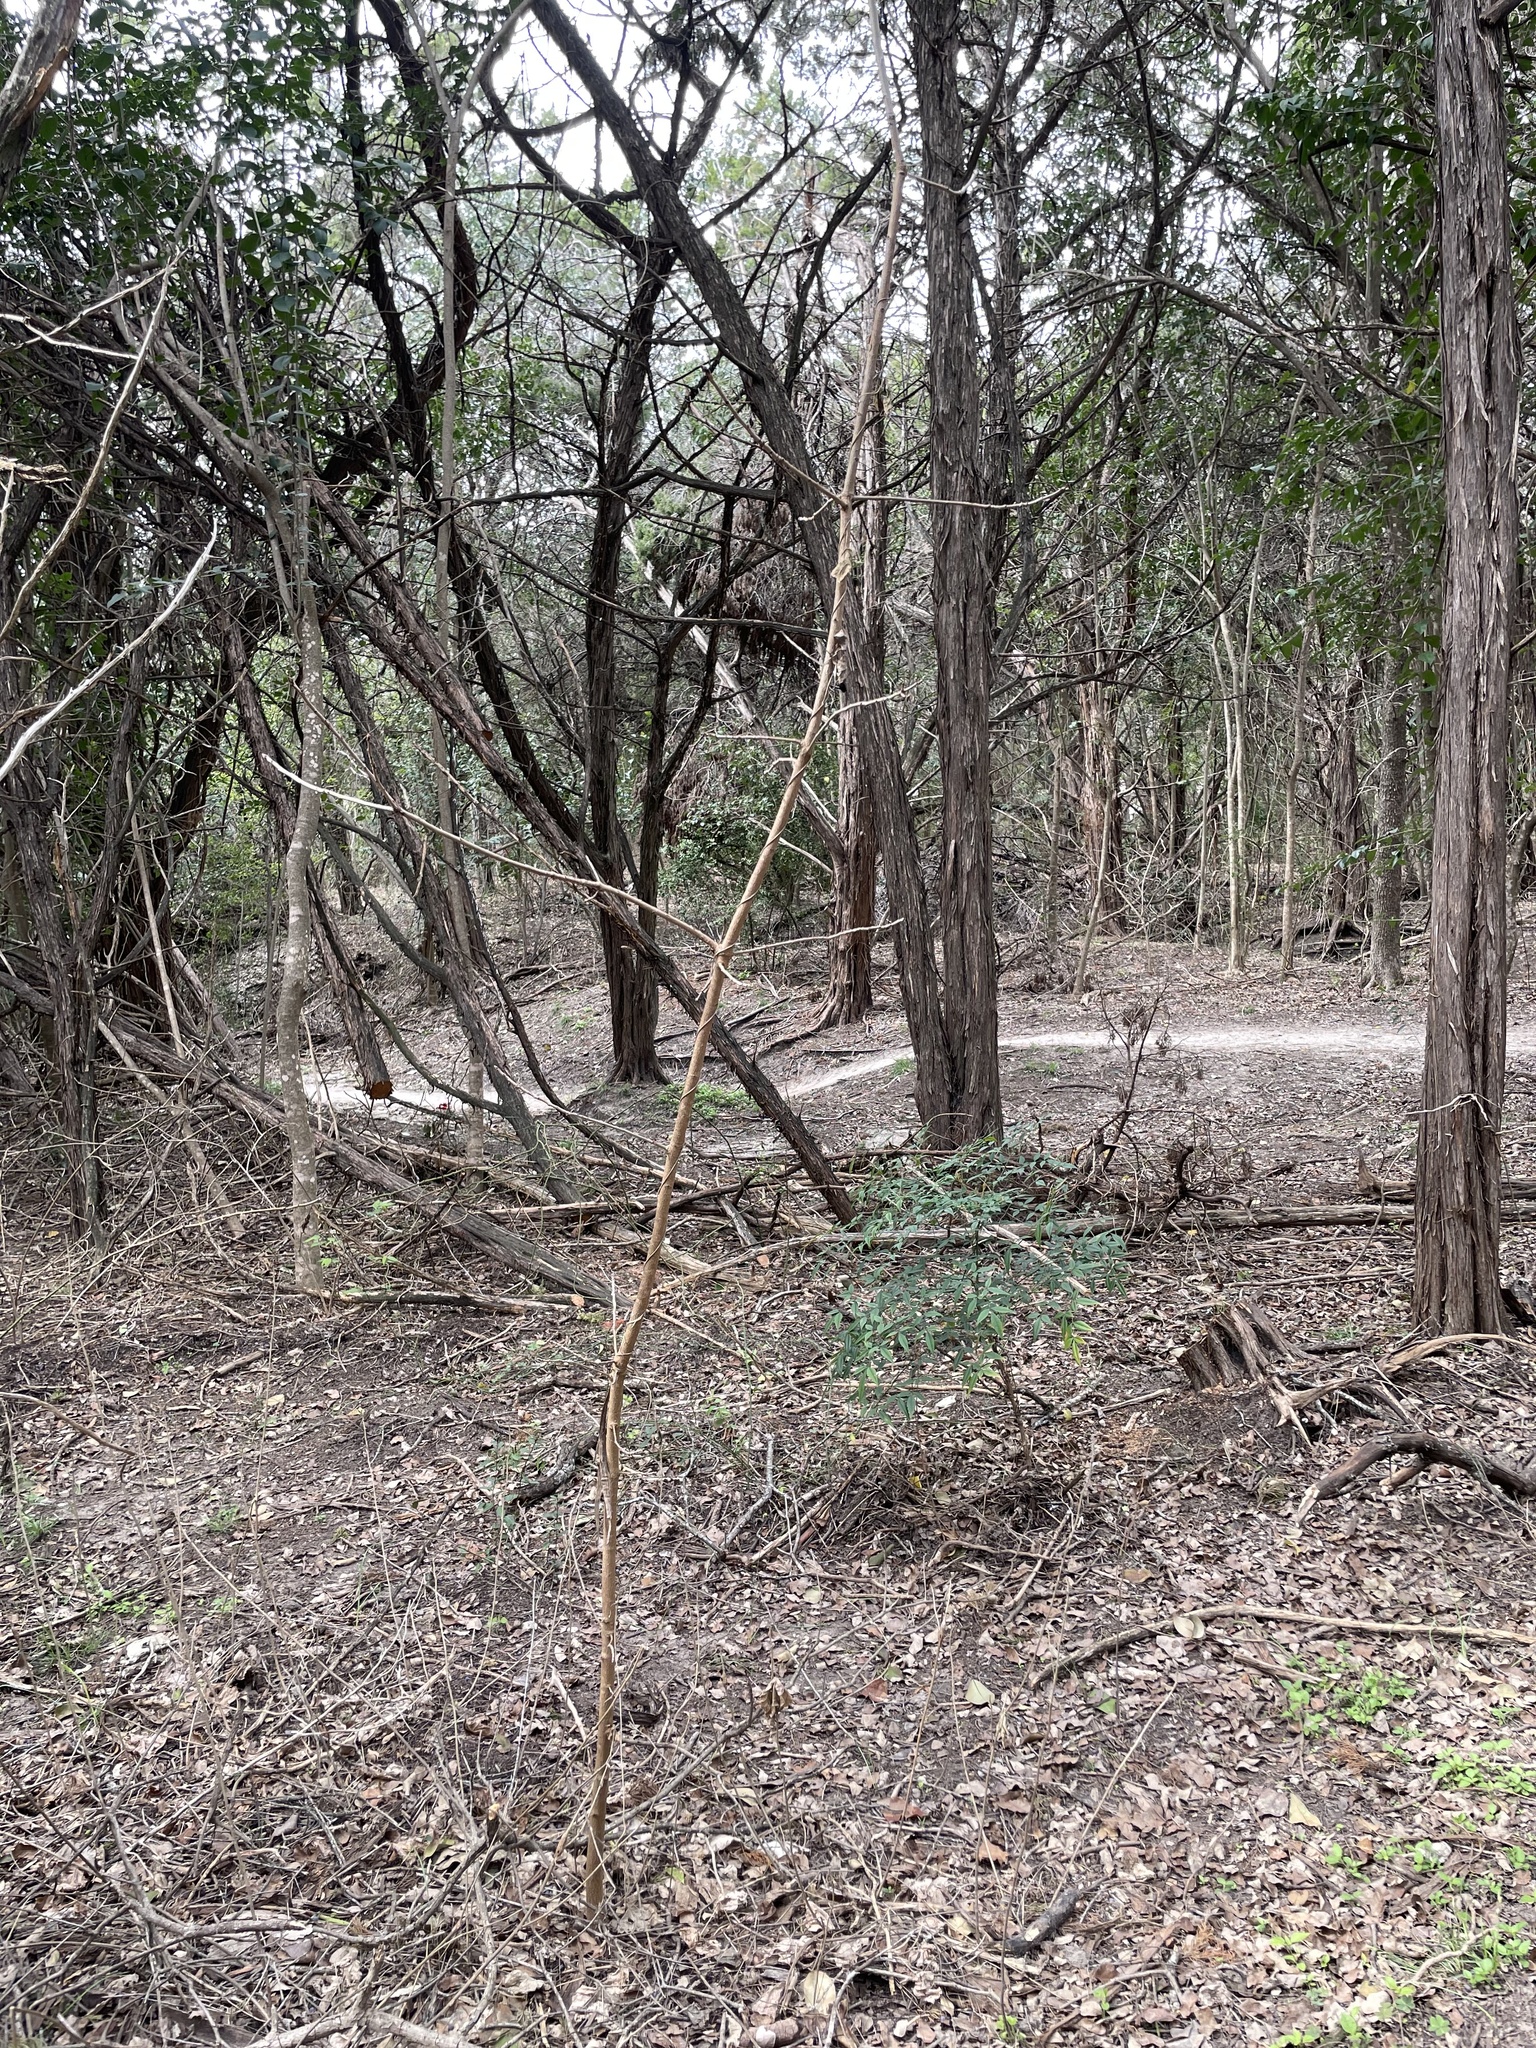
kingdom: Plantae
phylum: Tracheophyta
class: Magnoliopsida
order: Sapindales
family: Anacardiaceae
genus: Pistacia
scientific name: Pistacia chinensis
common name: Chinese pistache
